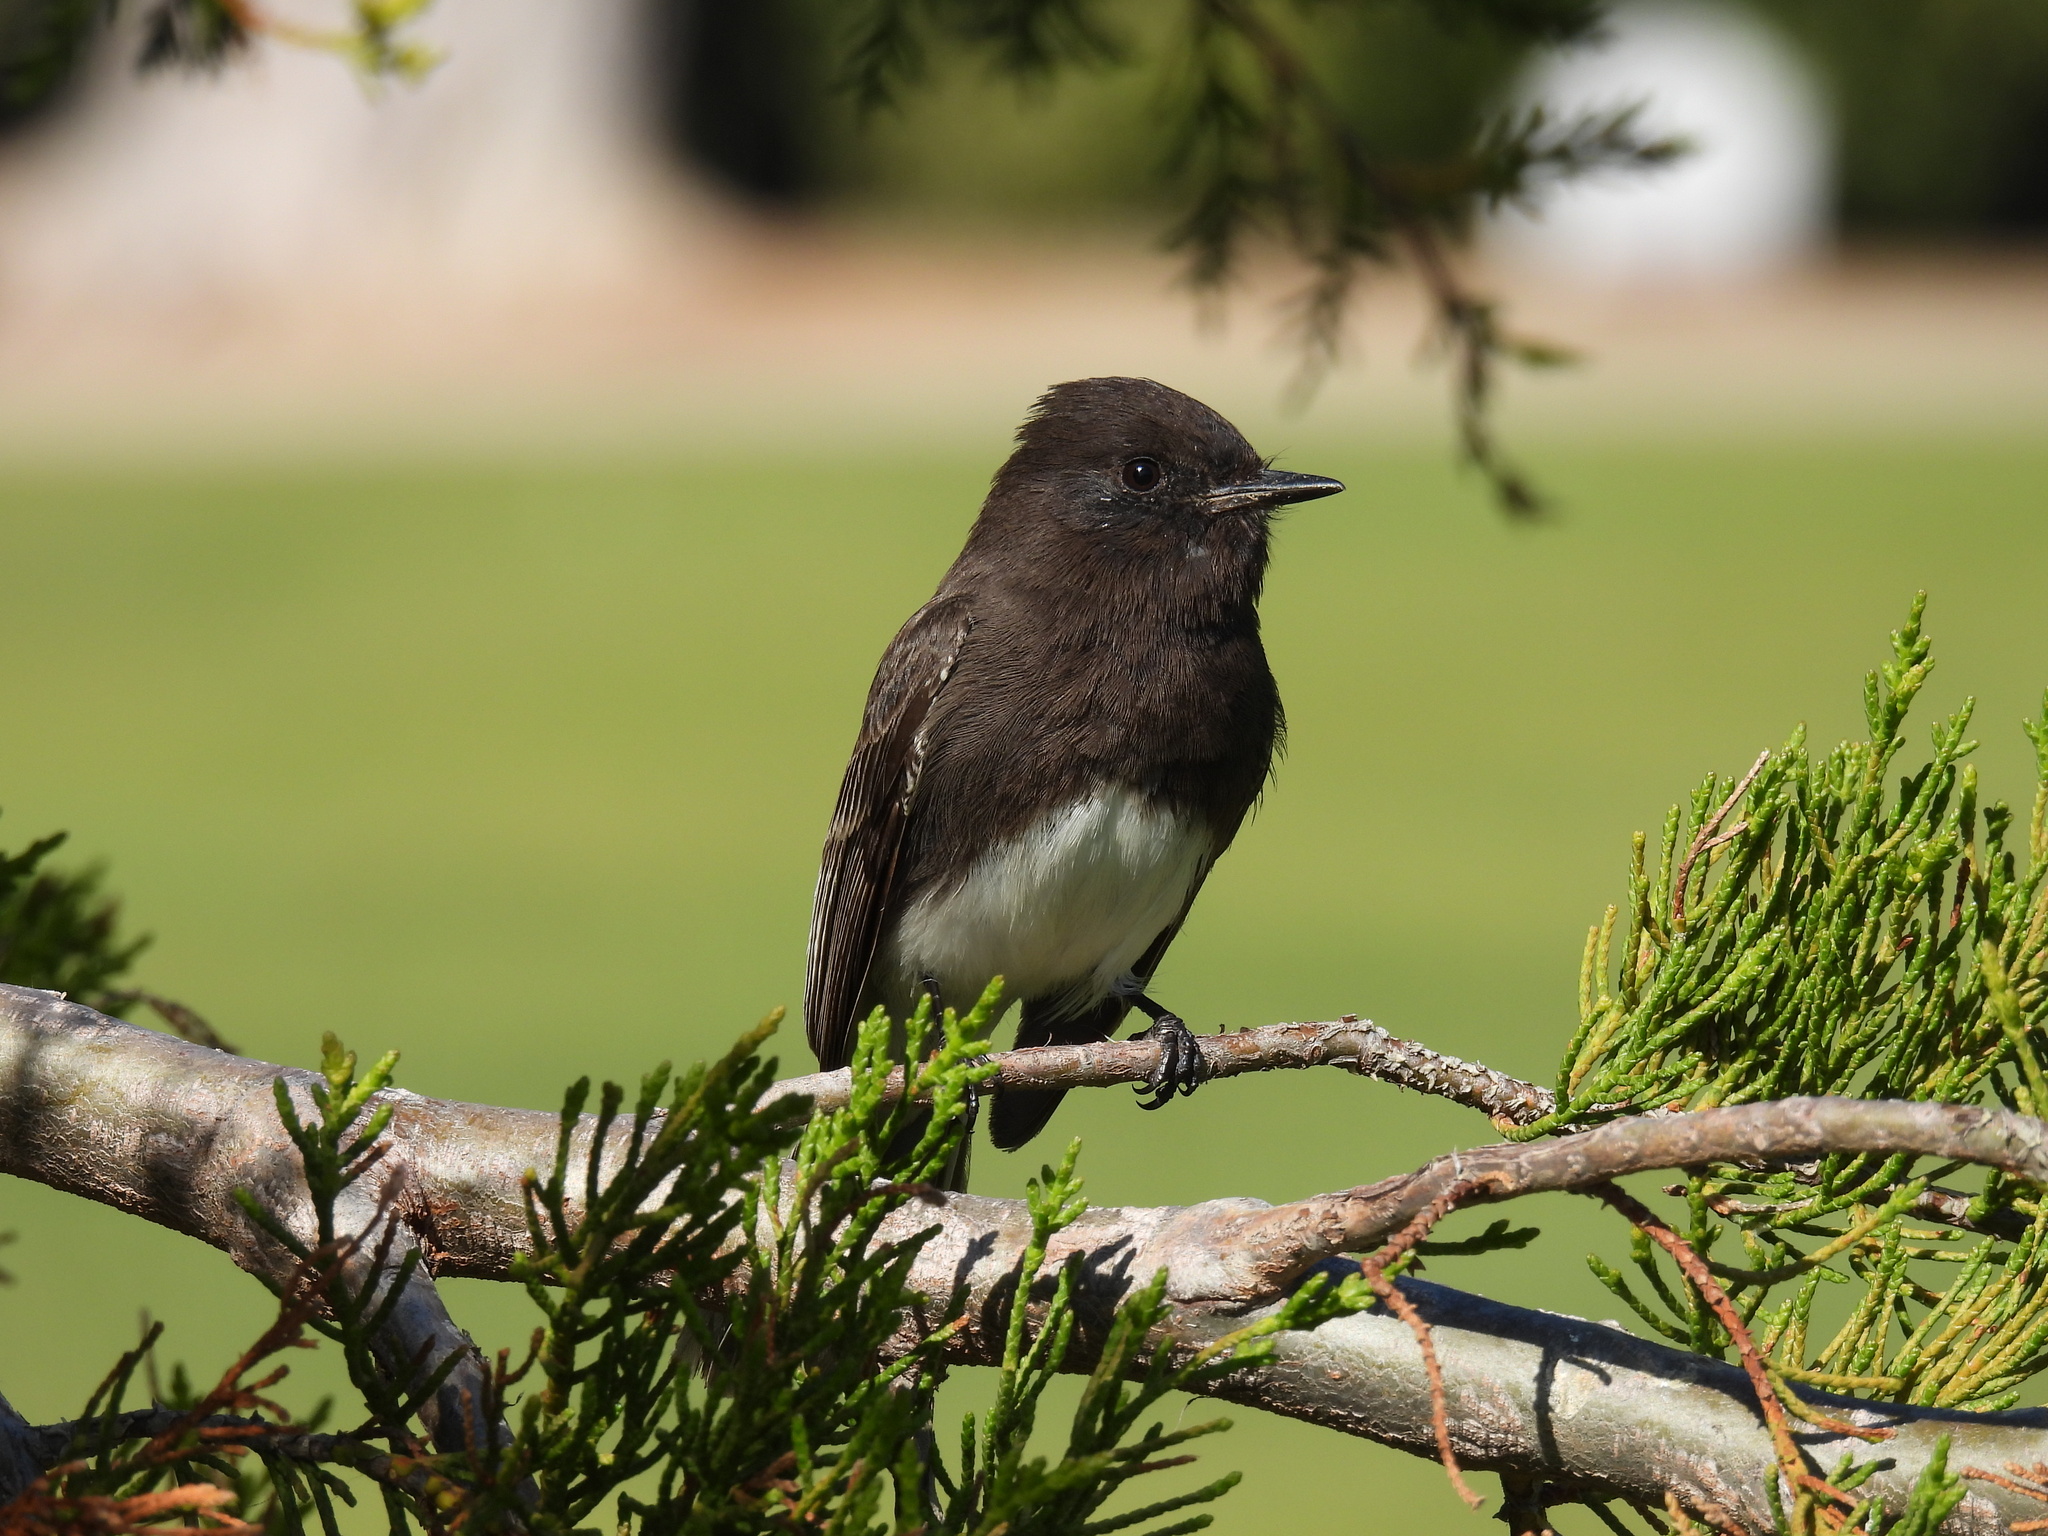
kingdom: Animalia
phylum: Chordata
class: Aves
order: Passeriformes
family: Tyrannidae
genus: Sayornis
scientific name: Sayornis nigricans
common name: Black phoebe
